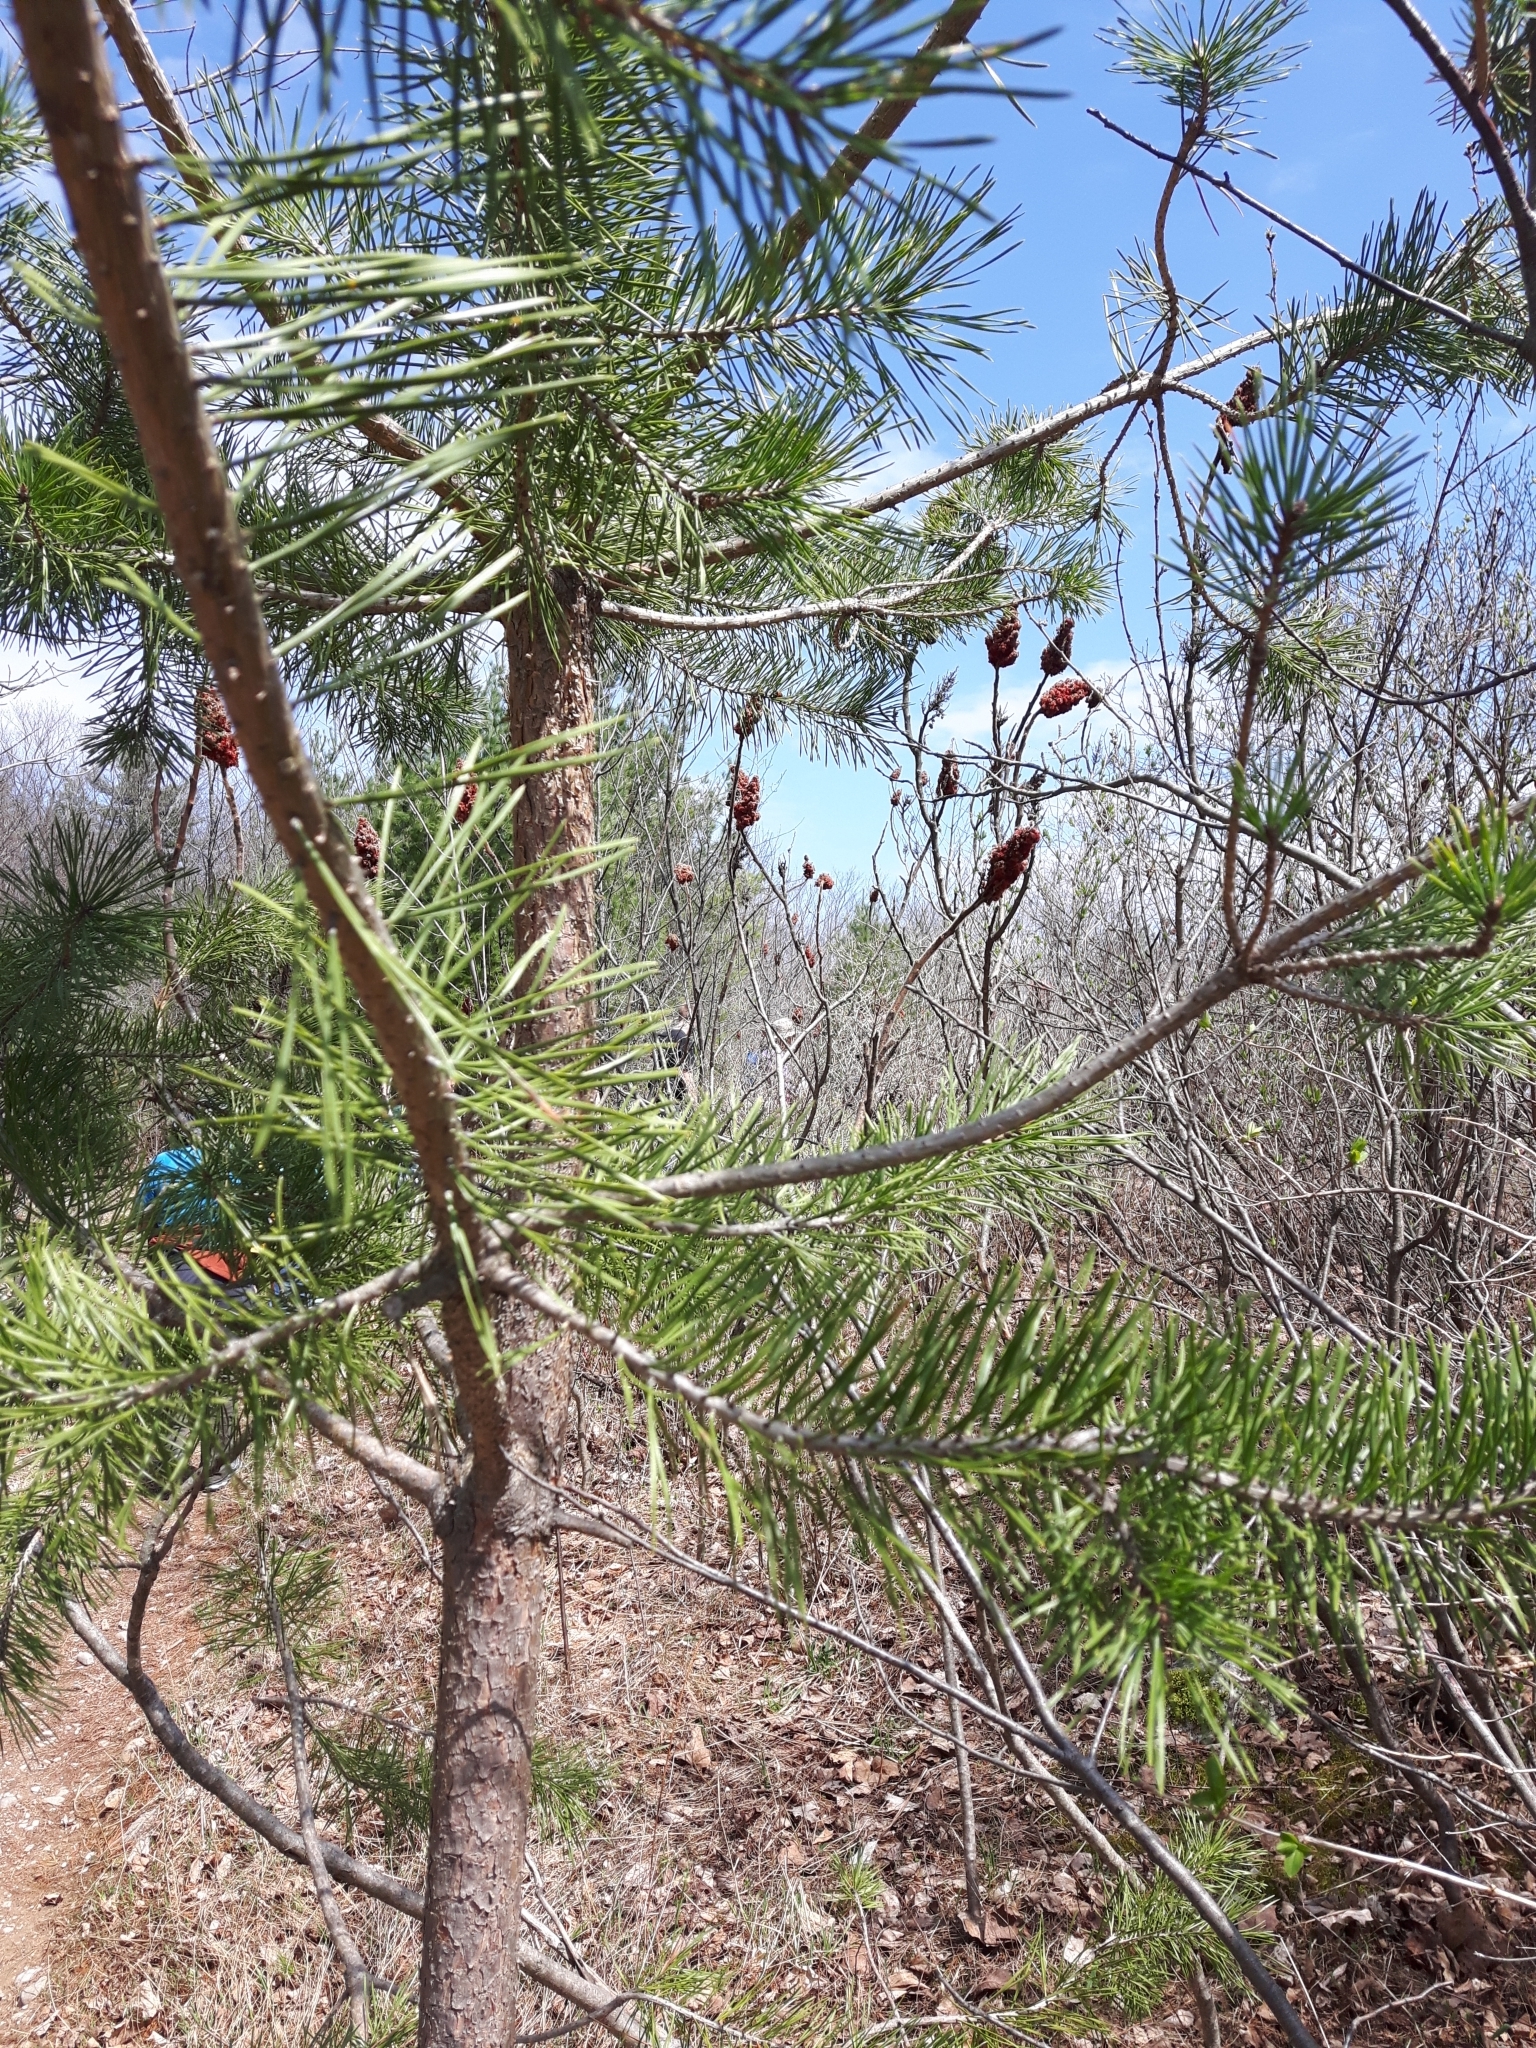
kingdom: Plantae
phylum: Tracheophyta
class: Pinopsida
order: Pinales
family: Pinaceae
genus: Pinus
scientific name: Pinus sylvestris
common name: Scots pine
